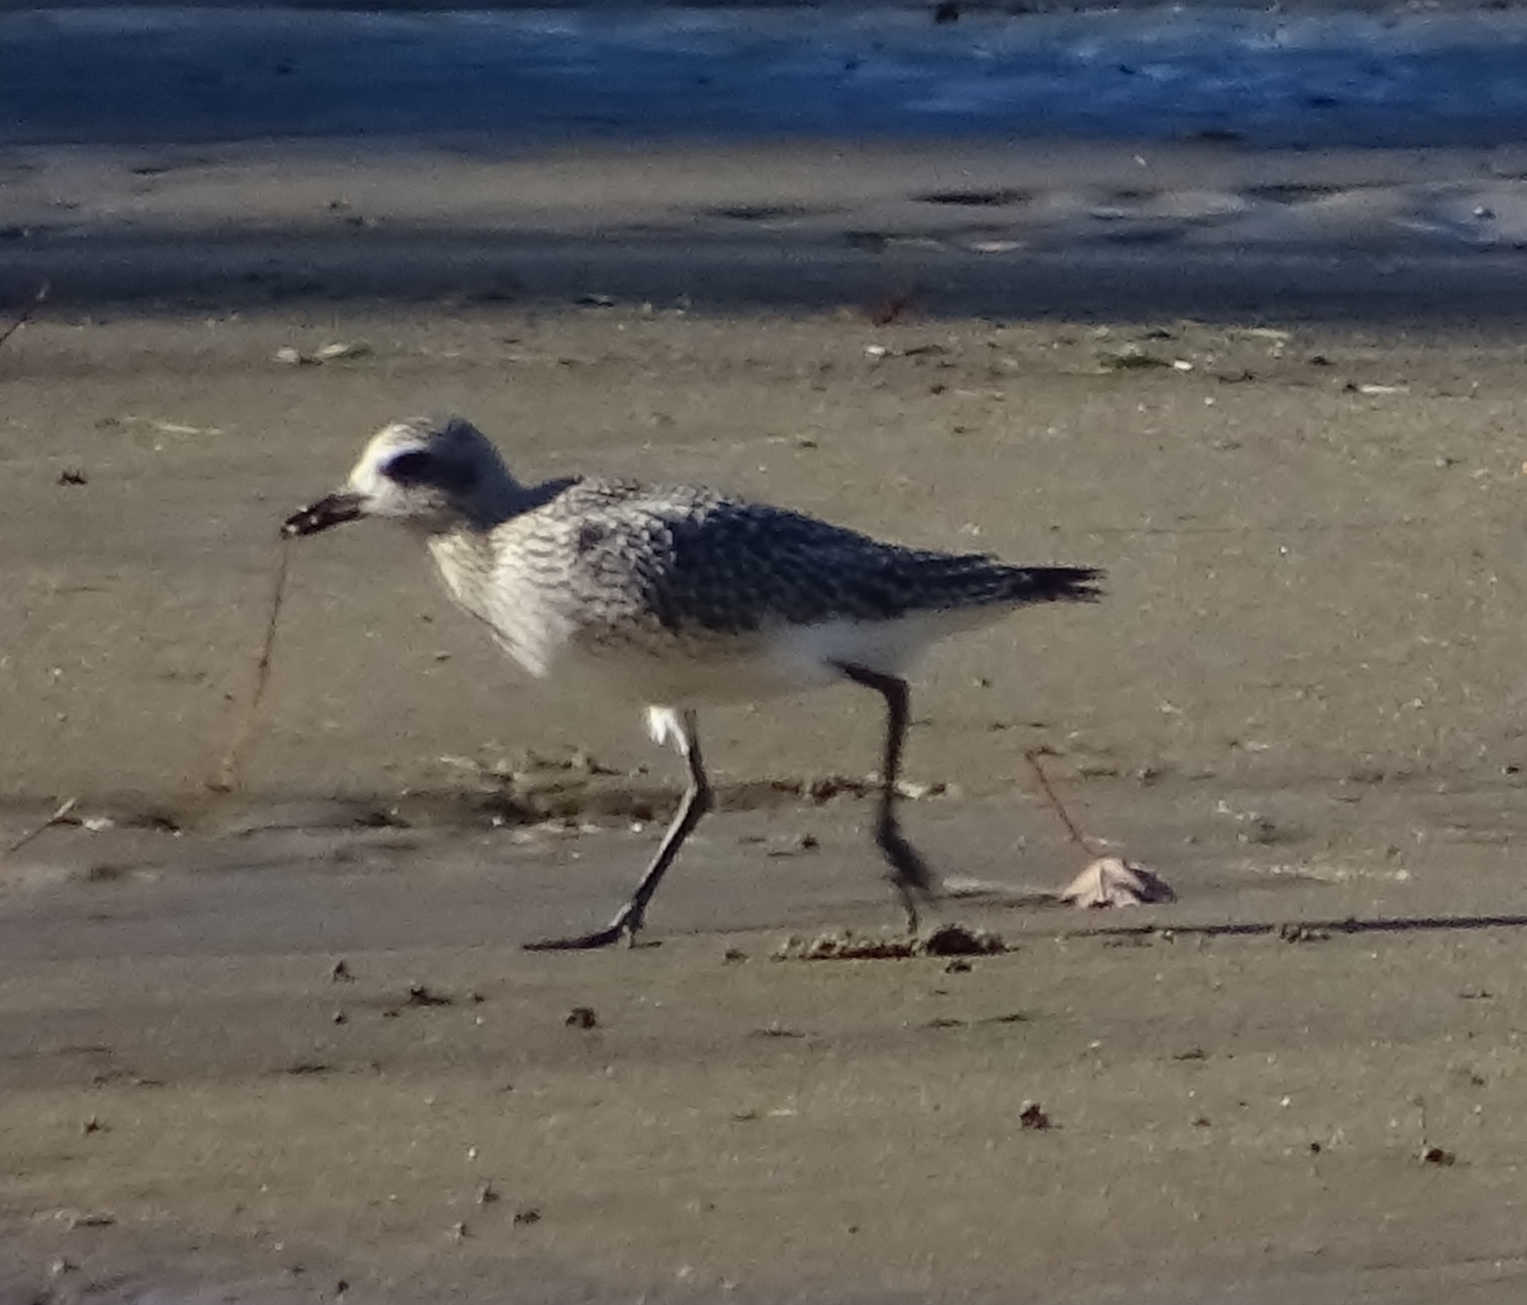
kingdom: Animalia
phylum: Chordata
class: Aves
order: Charadriiformes
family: Charadriidae
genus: Pluvialis
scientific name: Pluvialis squatarola
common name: Grey plover
